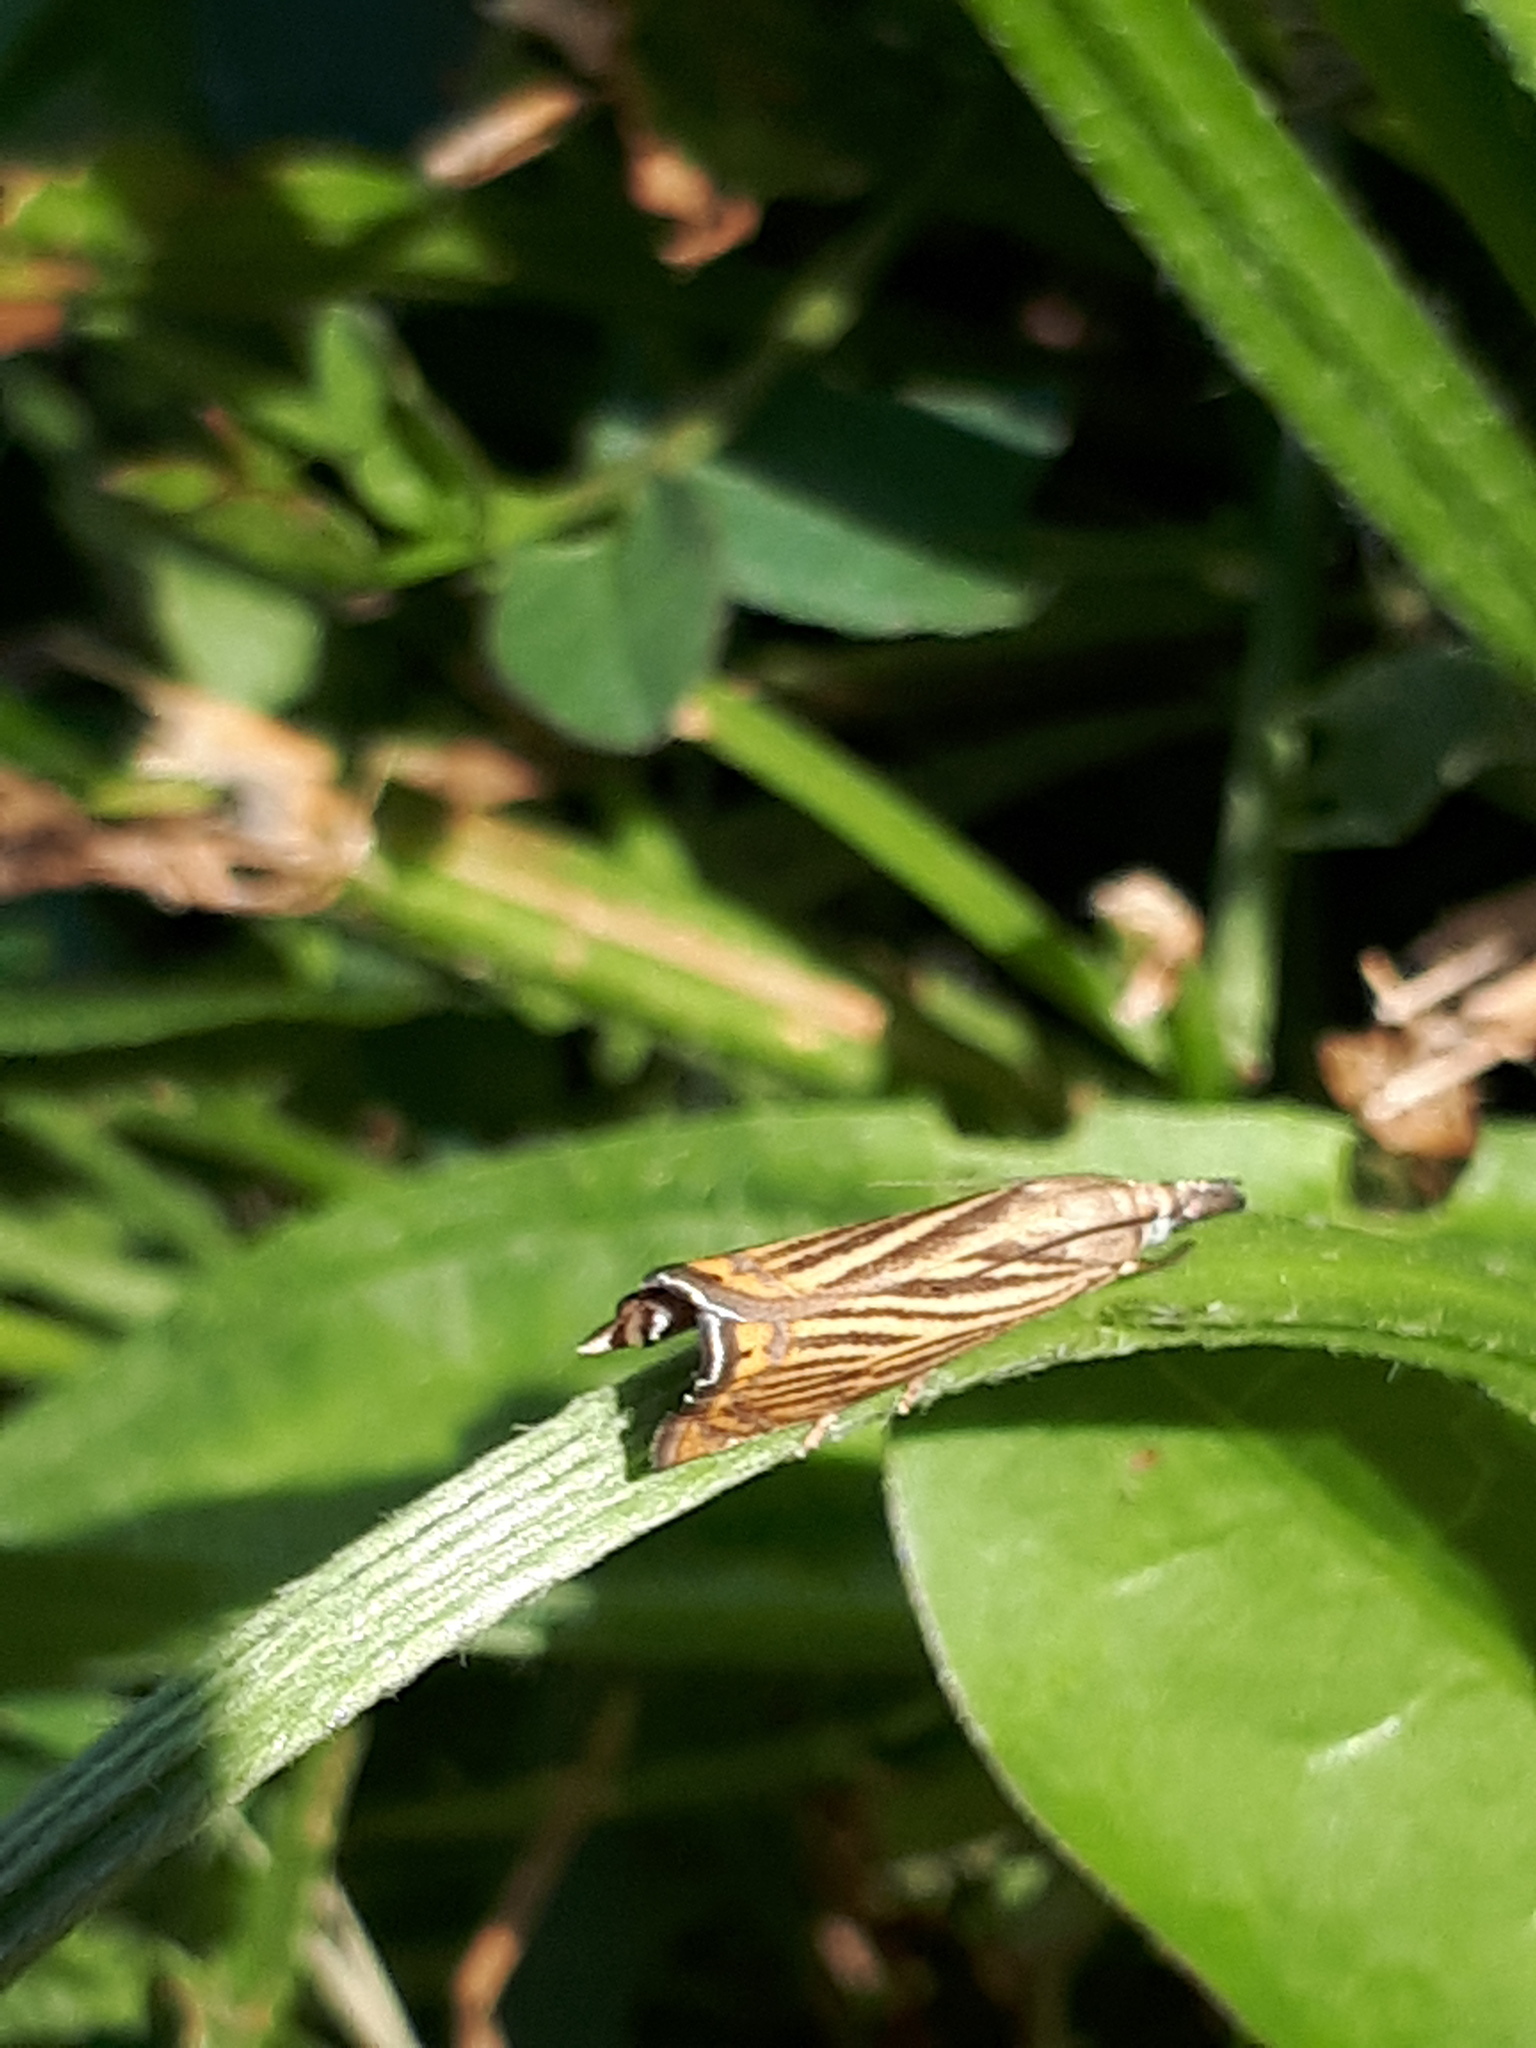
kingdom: Animalia
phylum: Arthropoda
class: Insecta
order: Lepidoptera
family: Crambidae
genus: Chrysoteuchia
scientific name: Chrysoteuchia culmella
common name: Garden grass-veneer
